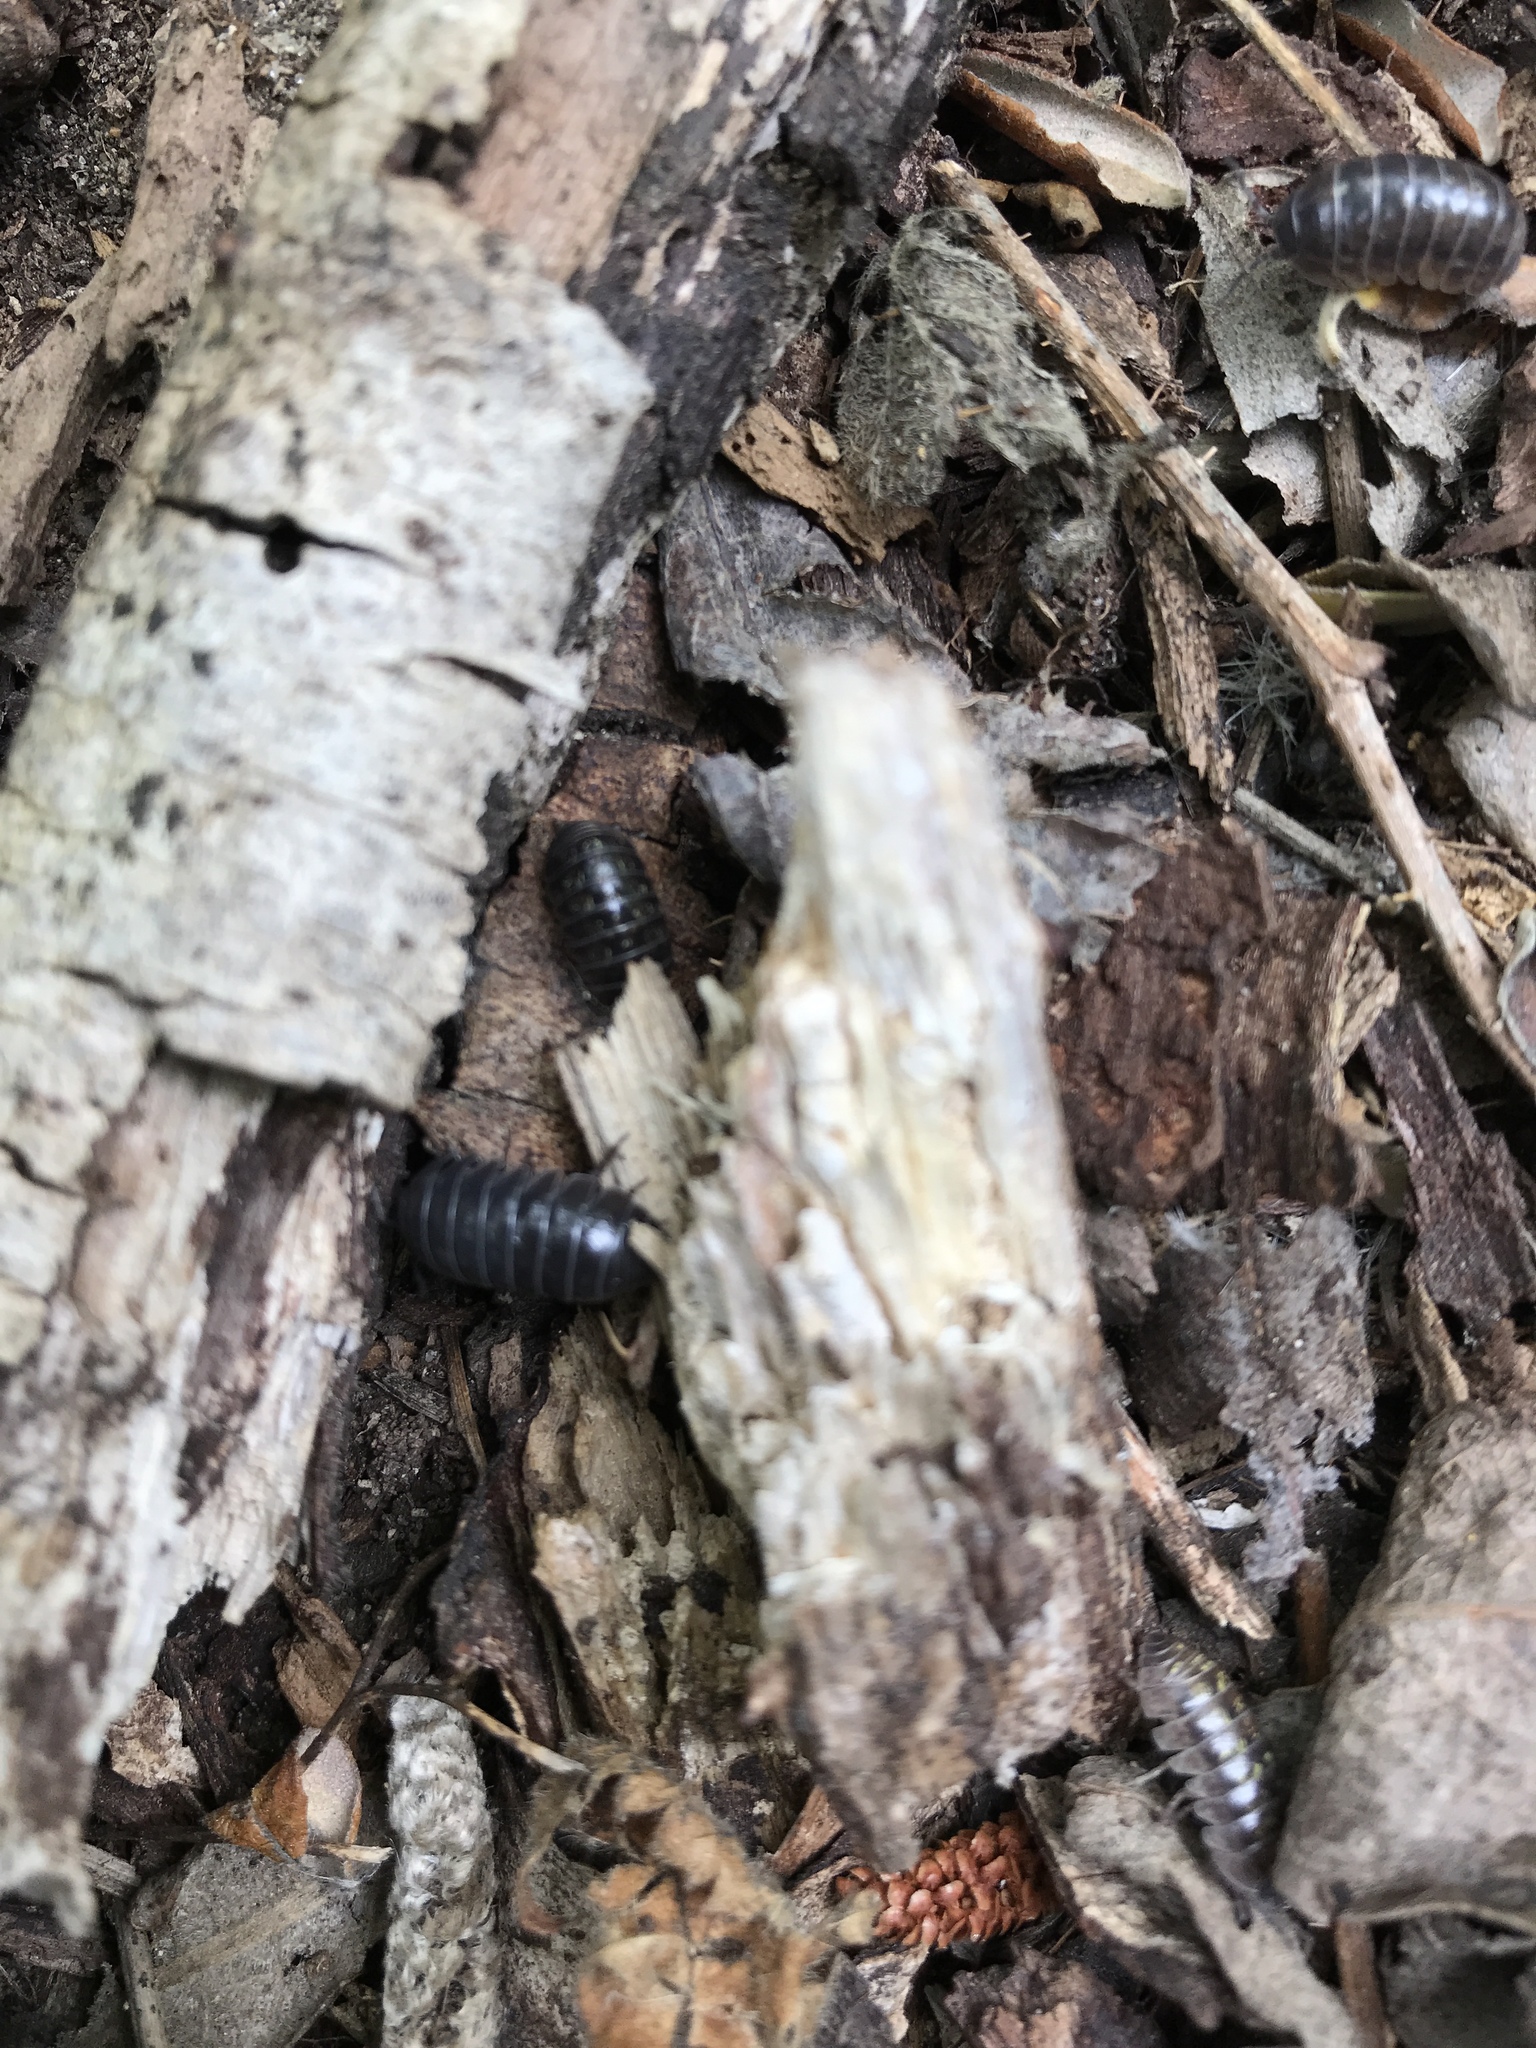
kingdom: Animalia
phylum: Arthropoda
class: Malacostraca
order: Isopoda
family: Armadillidiidae
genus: Armadillidium
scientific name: Armadillidium vulgare
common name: Common pill woodlouse
